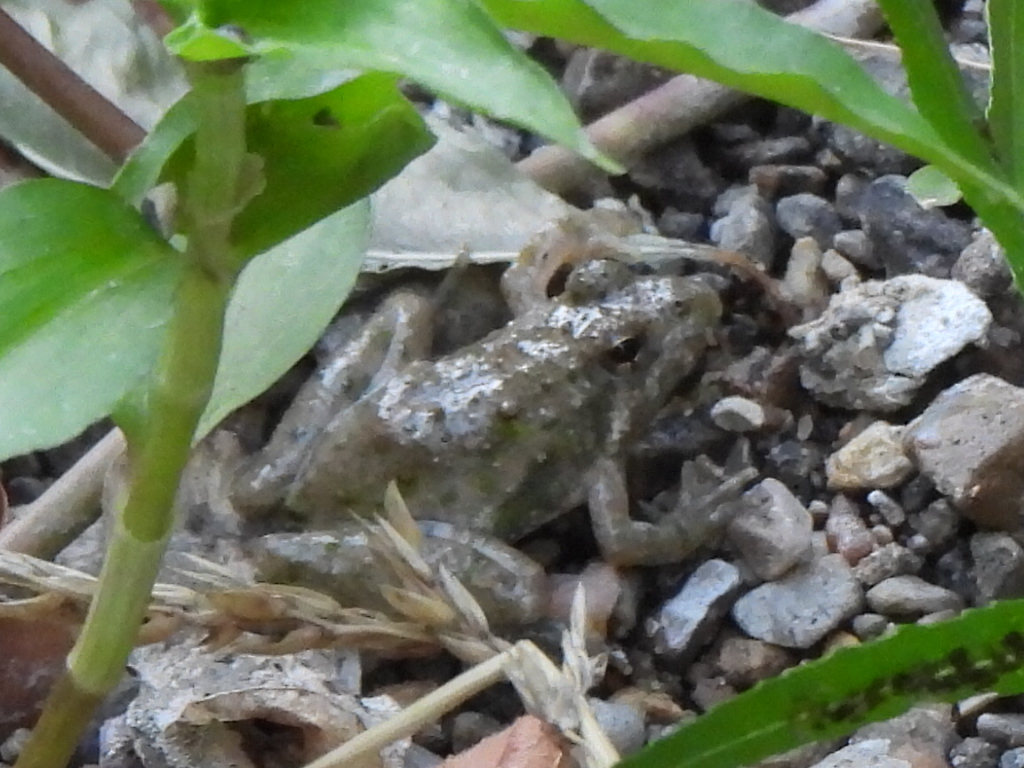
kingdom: Animalia
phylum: Chordata
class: Amphibia
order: Anura
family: Hylidae
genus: Acris
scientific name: Acris blanchardi
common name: Blanchard's cricket frog
